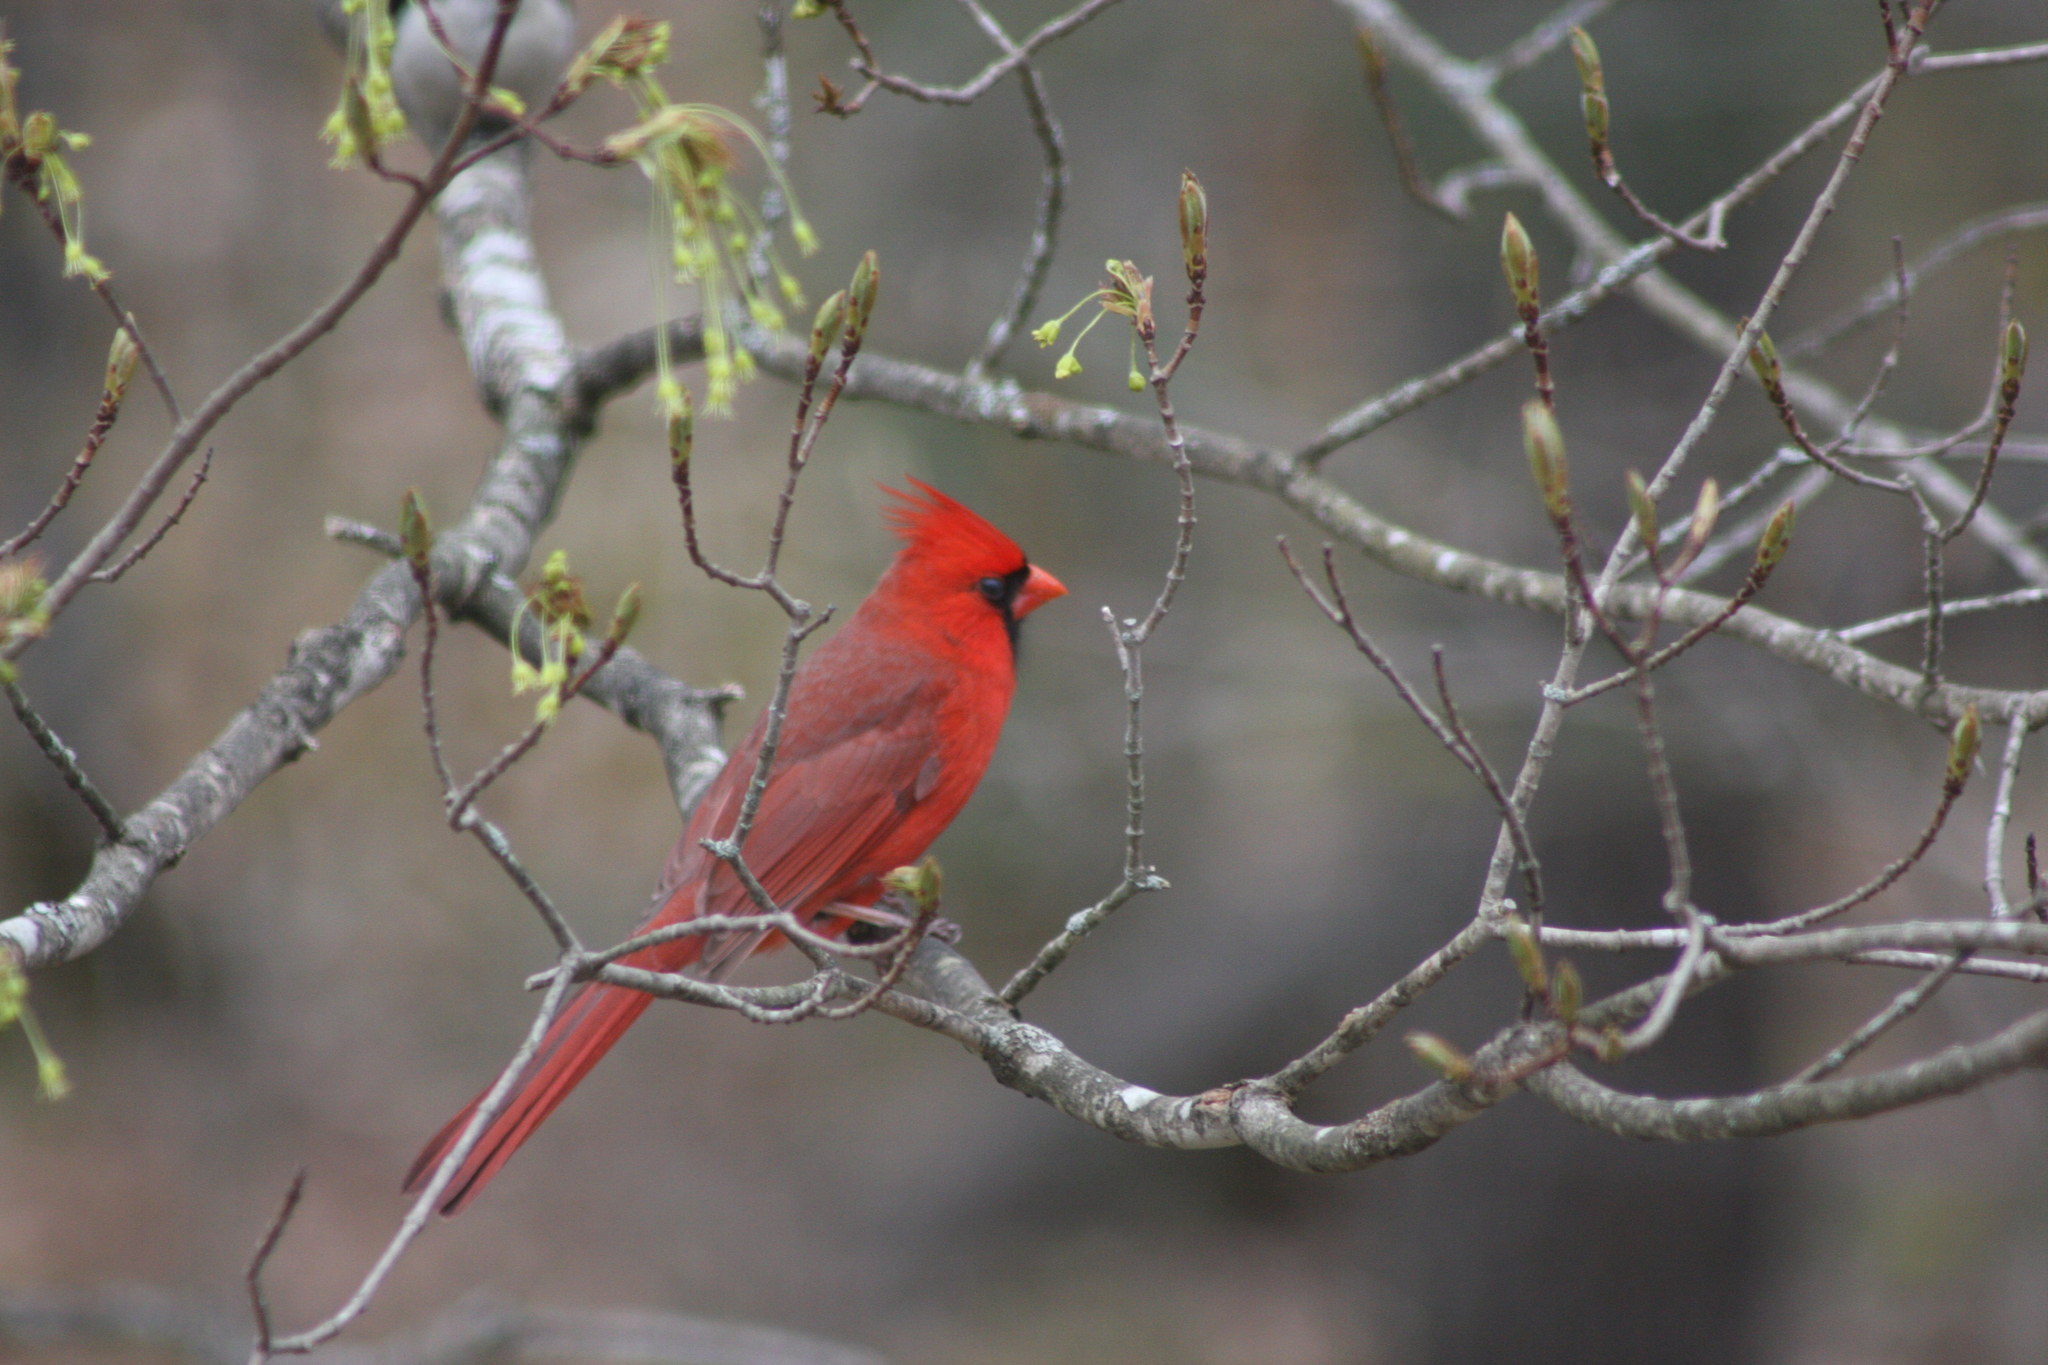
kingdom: Animalia
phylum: Chordata
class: Aves
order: Passeriformes
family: Cardinalidae
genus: Cardinalis
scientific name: Cardinalis cardinalis
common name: Northern cardinal
